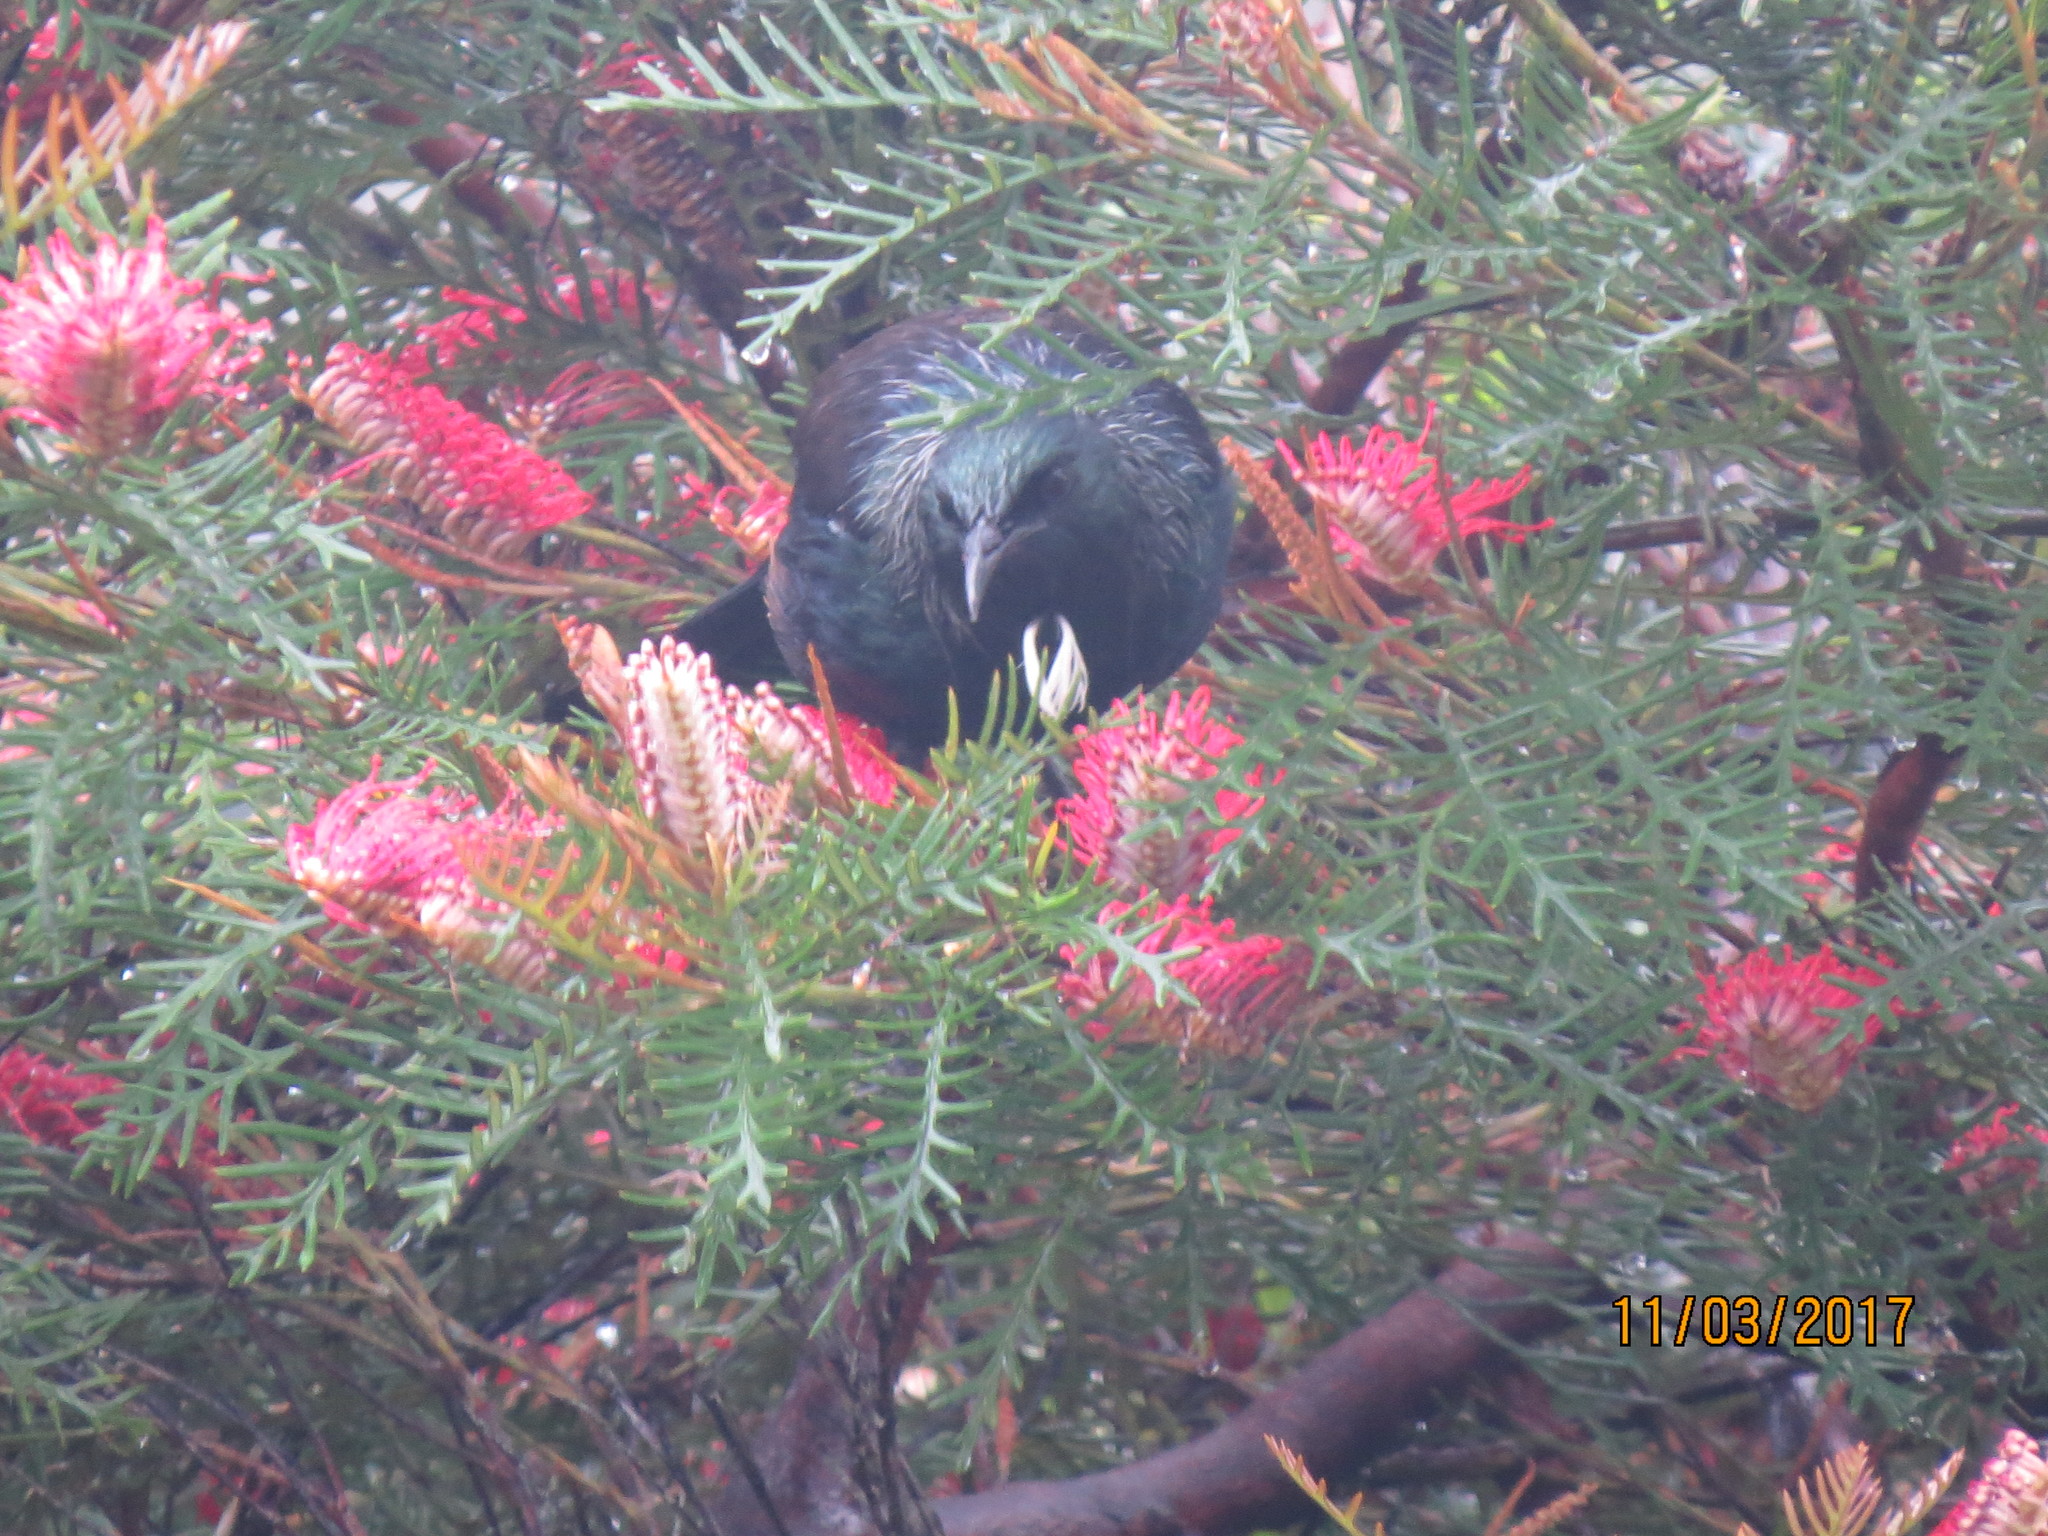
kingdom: Animalia
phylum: Chordata
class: Aves
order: Passeriformes
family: Meliphagidae
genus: Prosthemadera
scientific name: Prosthemadera novaeseelandiae
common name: Tui
